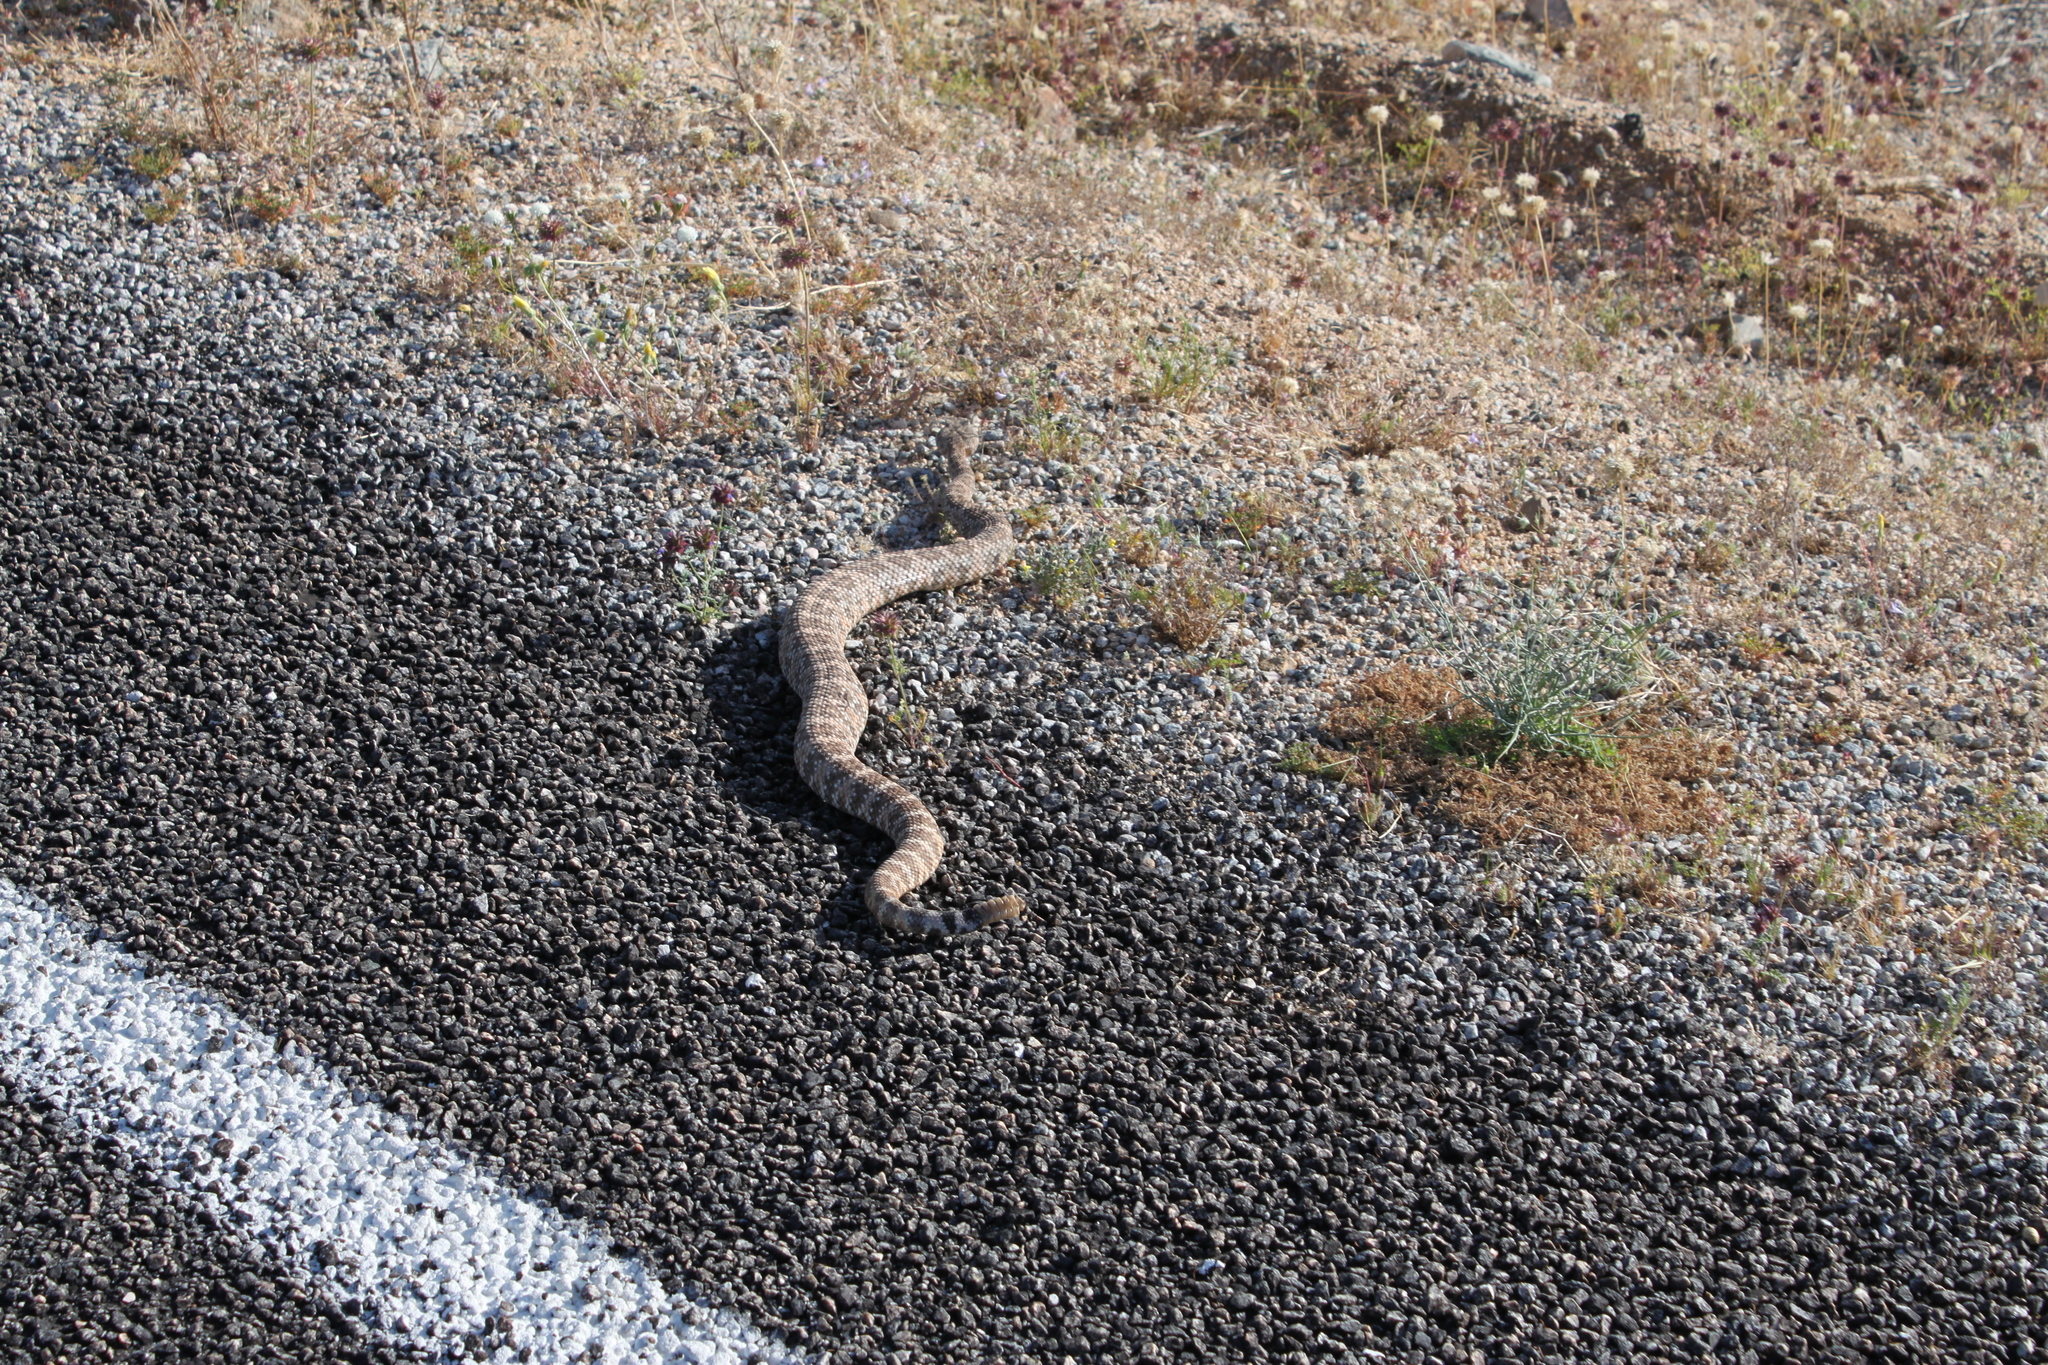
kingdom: Animalia
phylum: Chordata
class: Squamata
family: Viperidae
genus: Crotalus
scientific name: Crotalus pyrrhus
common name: Southwestern speckled rattlesnake
